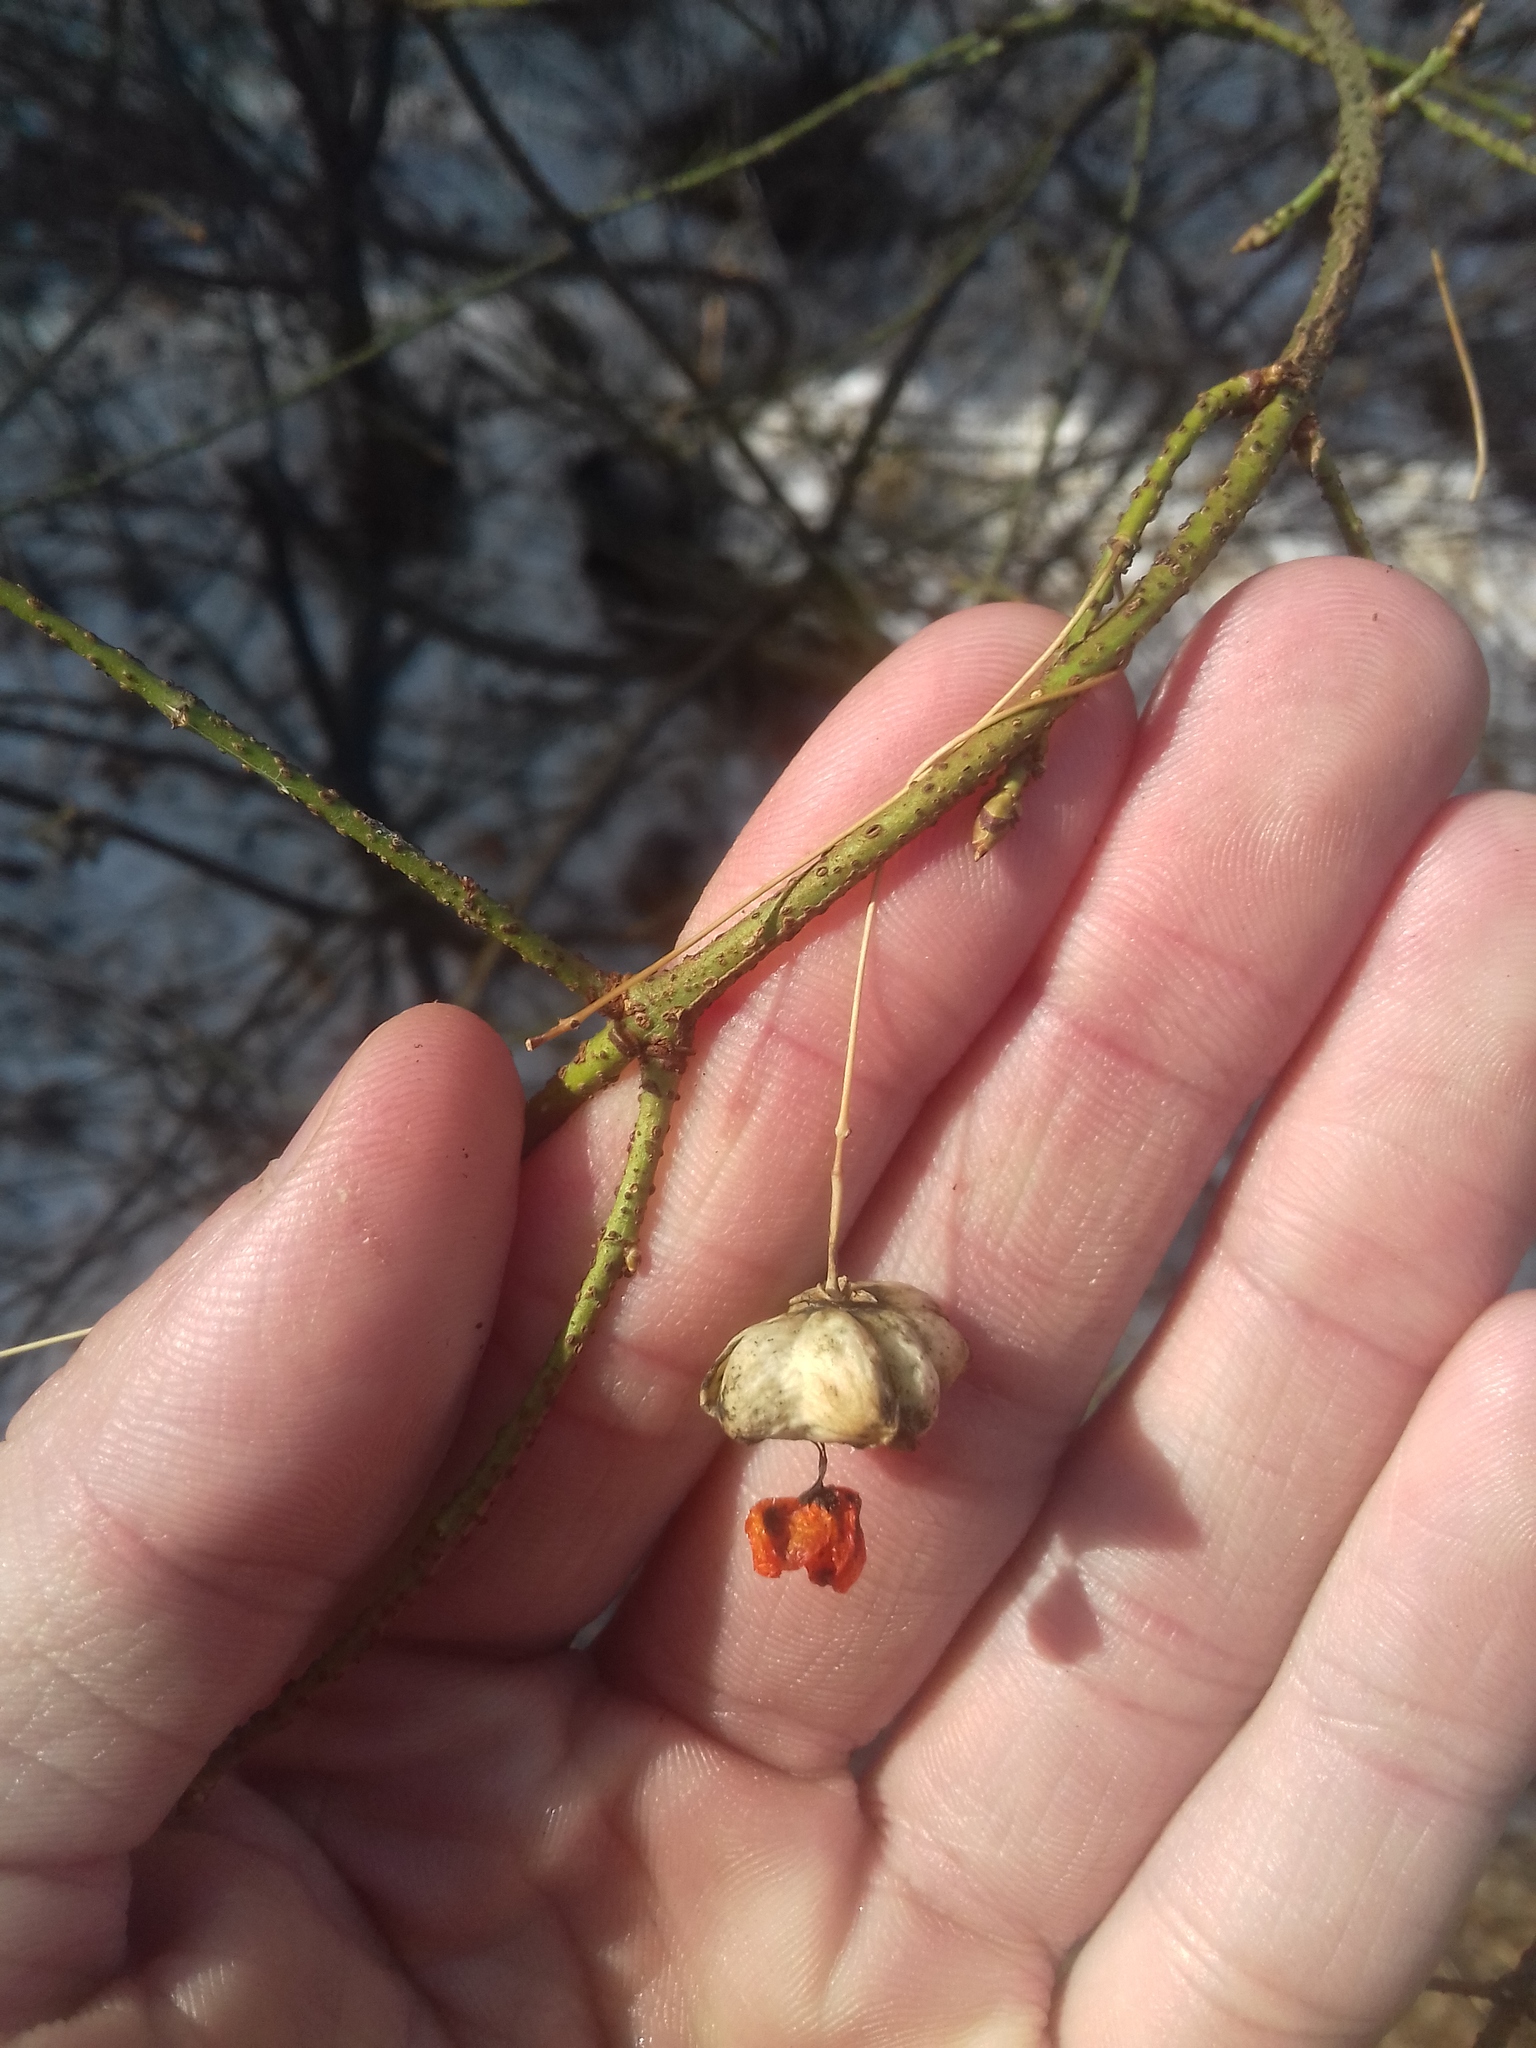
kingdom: Plantae
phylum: Tracheophyta
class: Magnoliopsida
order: Celastrales
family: Celastraceae
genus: Euonymus
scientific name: Euonymus verrucosus
